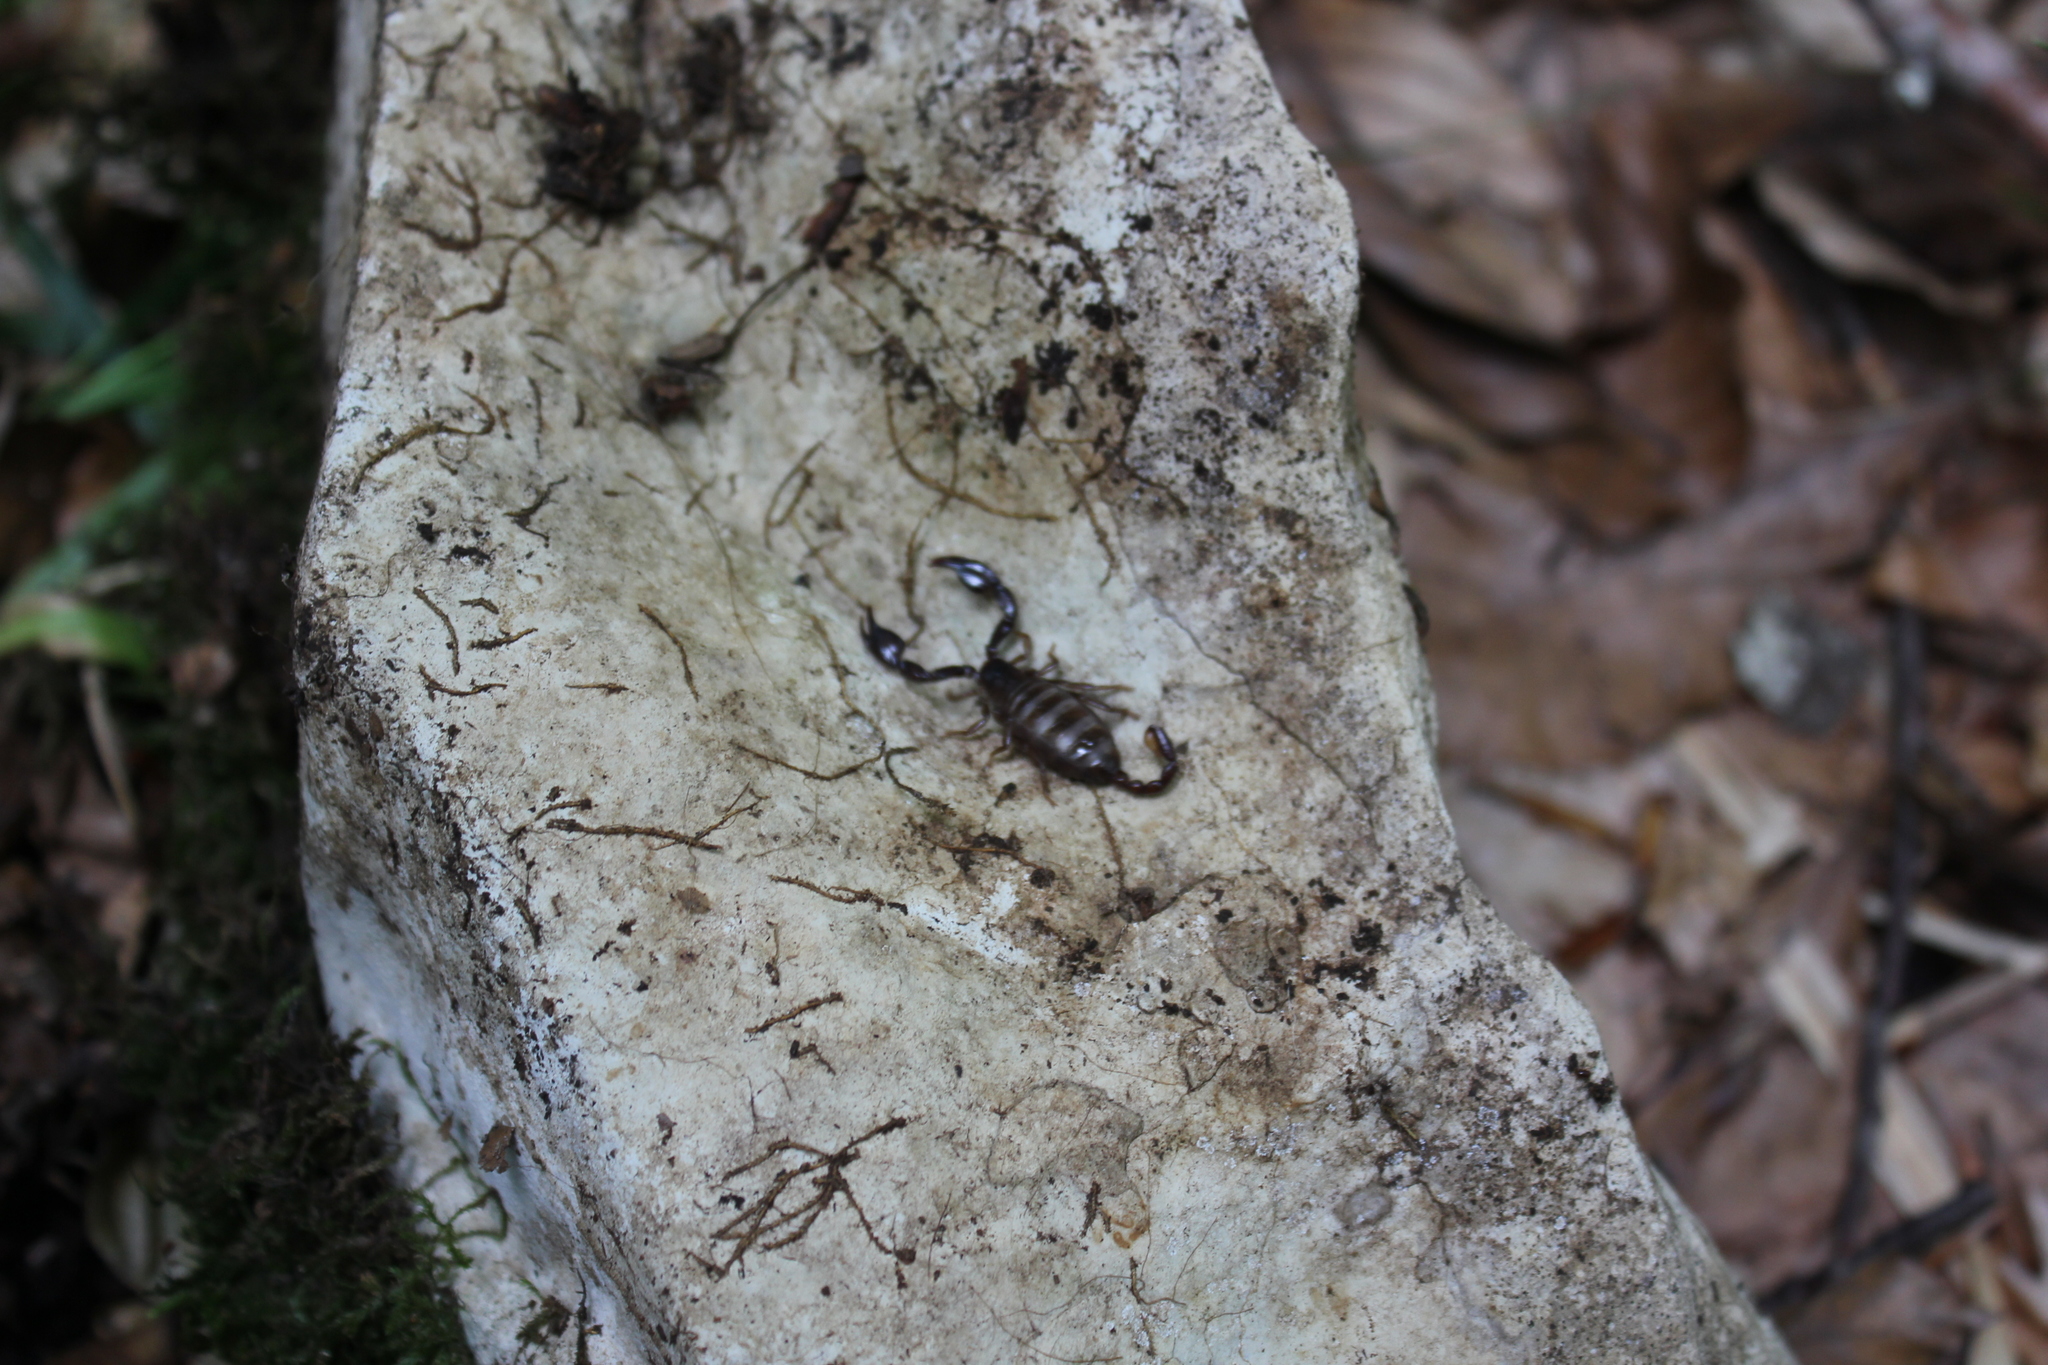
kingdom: Animalia
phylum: Arthropoda
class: Arachnida
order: Scorpiones
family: Euscorpiidae
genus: Alpiscorpius
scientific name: Alpiscorpius mingrelicus
